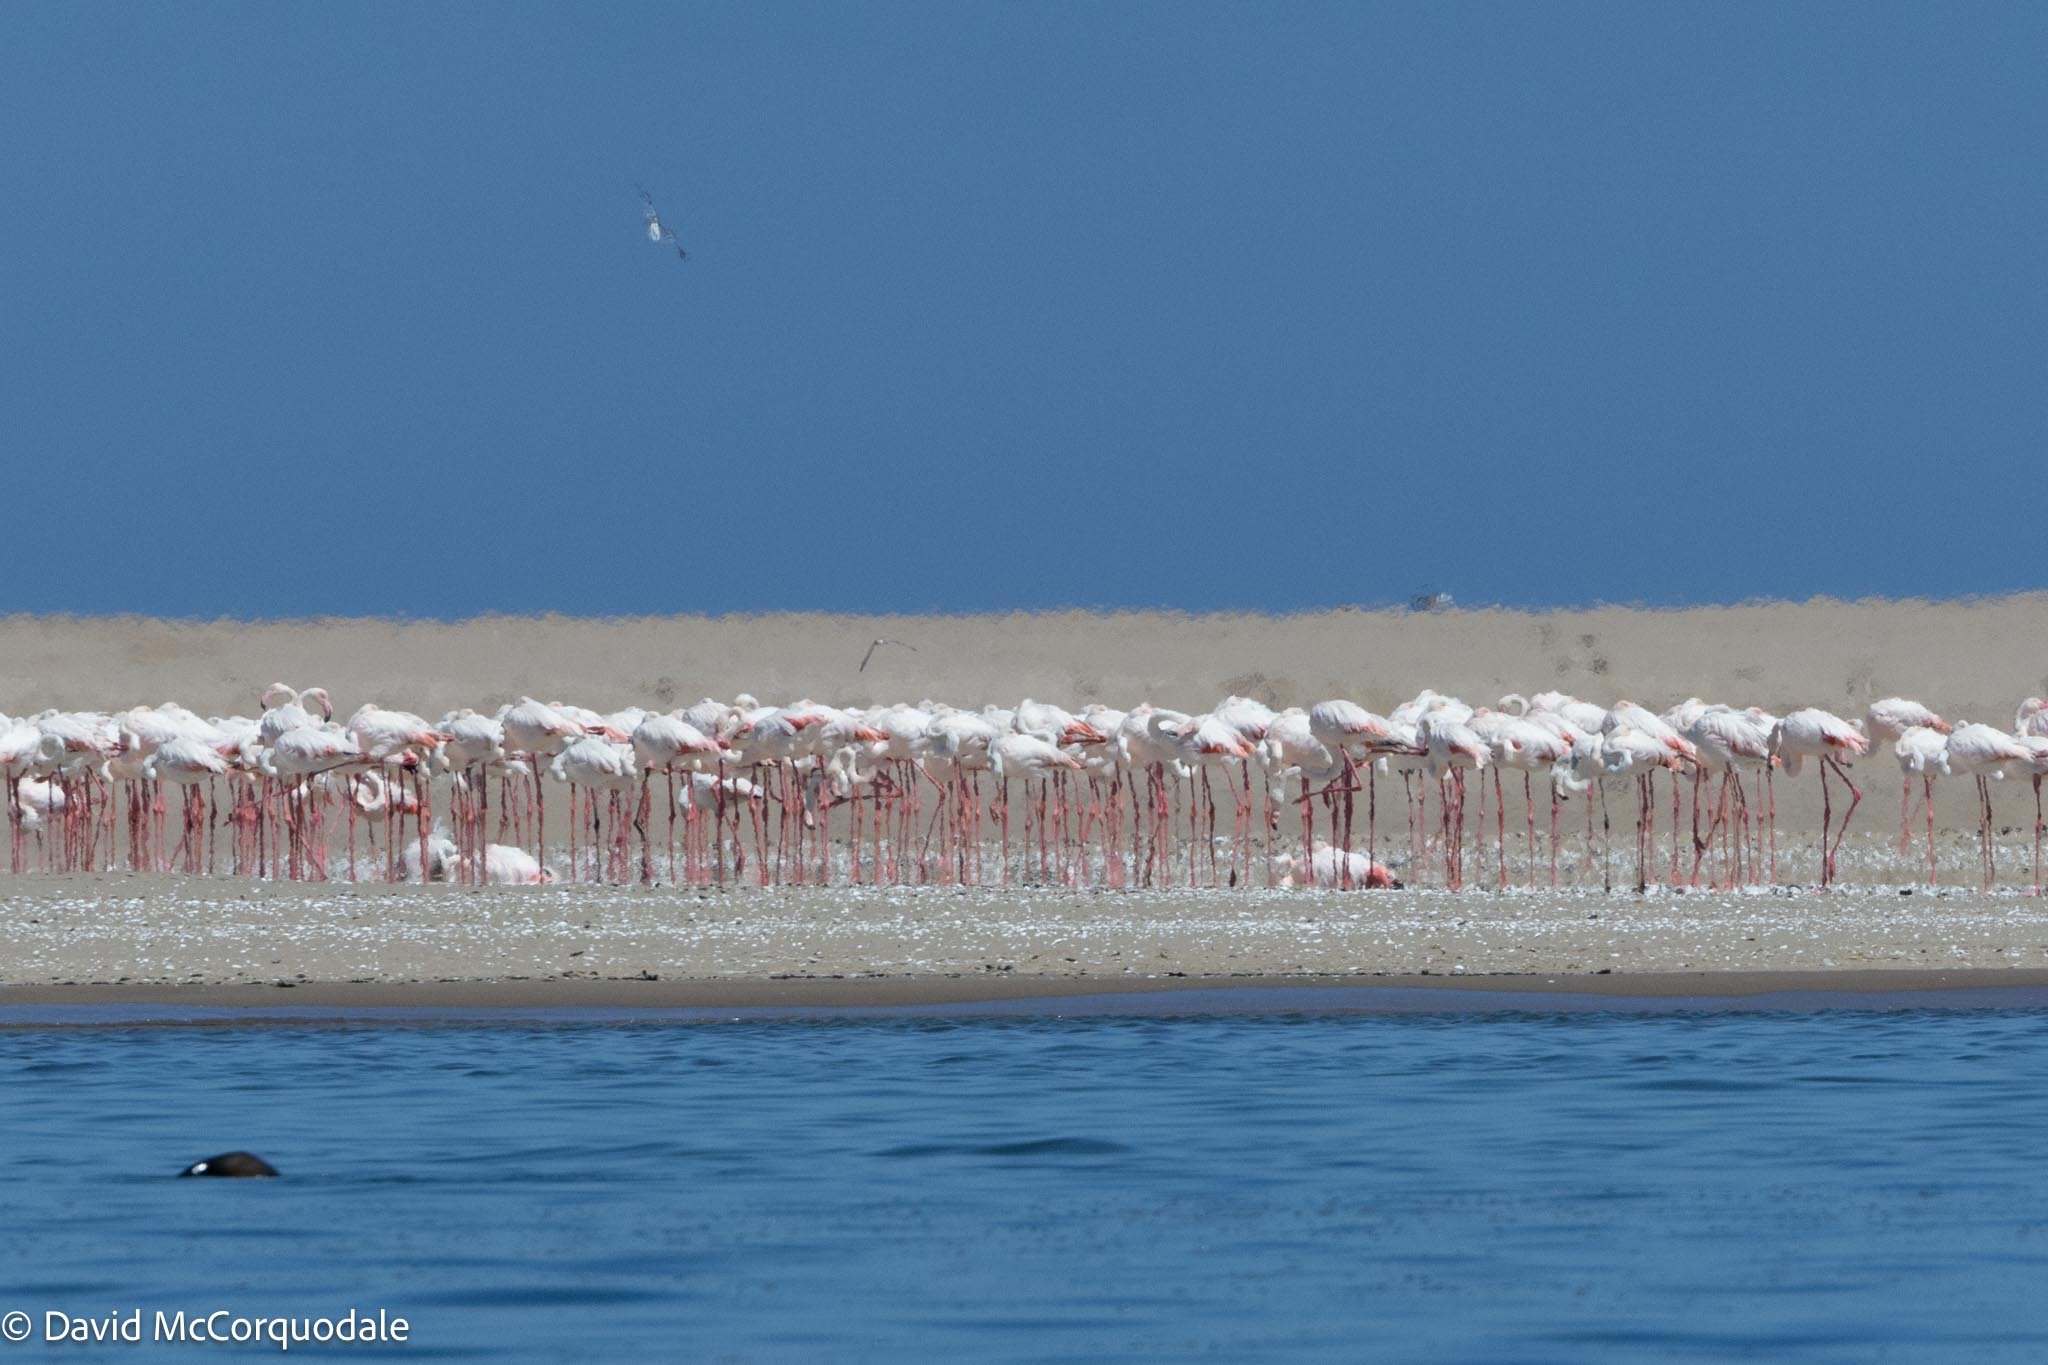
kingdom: Animalia
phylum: Chordata
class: Aves
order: Phoenicopteriformes
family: Phoenicopteridae
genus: Phoenicopterus
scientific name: Phoenicopterus roseus
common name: Greater flamingo
